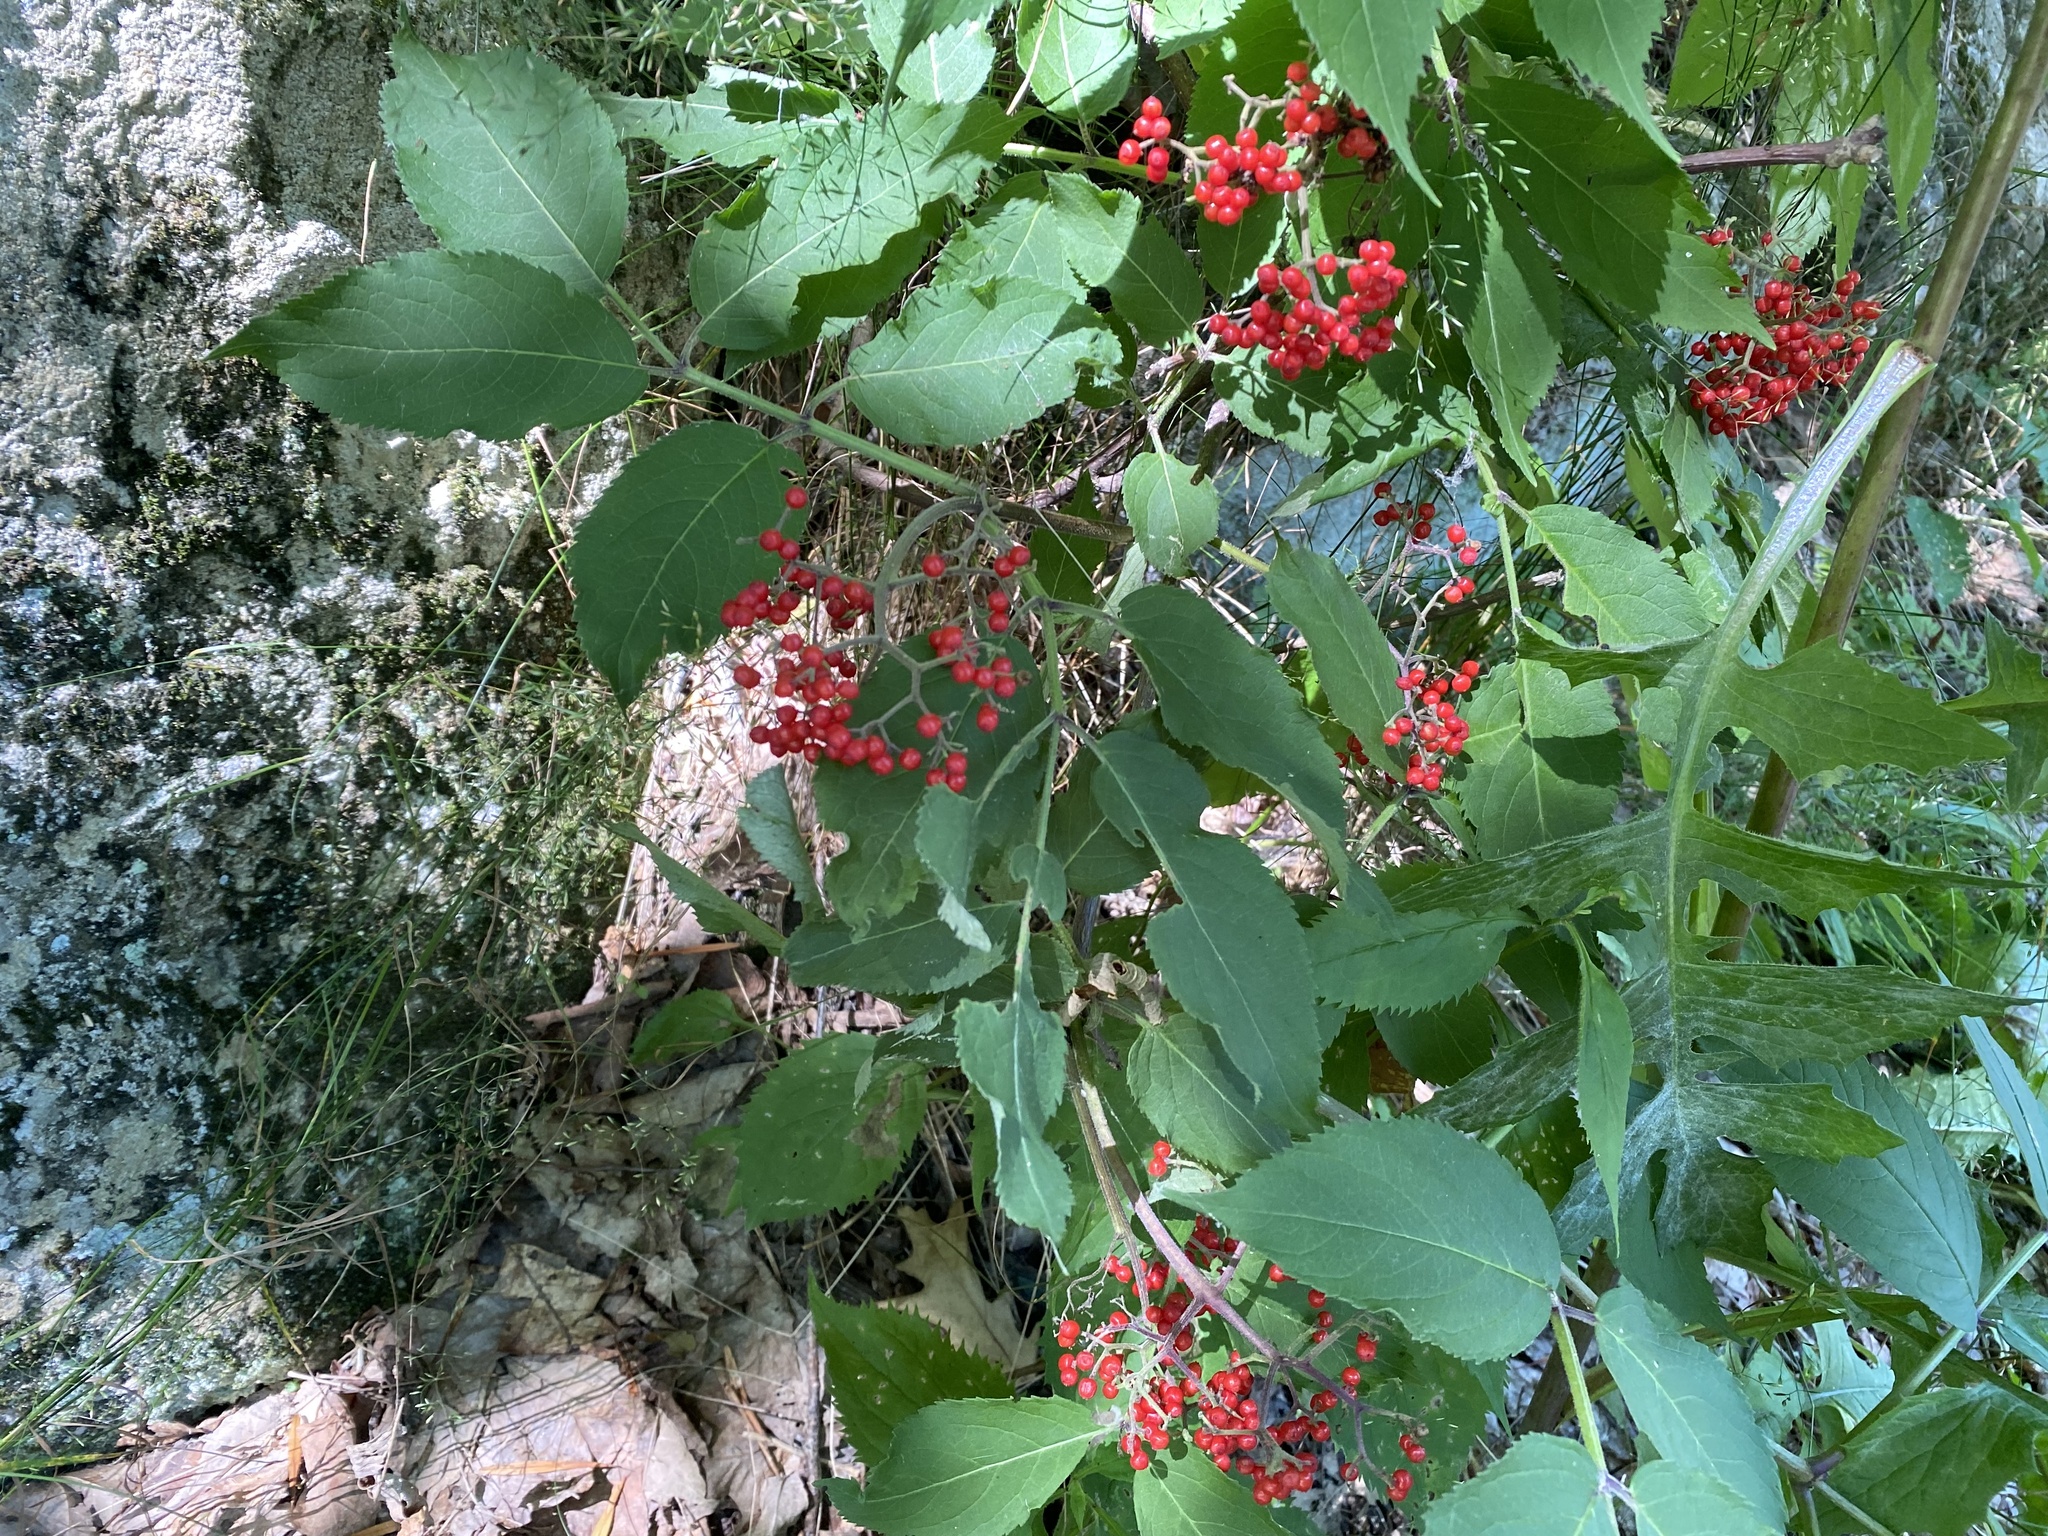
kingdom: Plantae
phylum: Tracheophyta
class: Magnoliopsida
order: Dipsacales
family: Viburnaceae
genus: Sambucus
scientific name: Sambucus racemosa
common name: Red-berried elder
